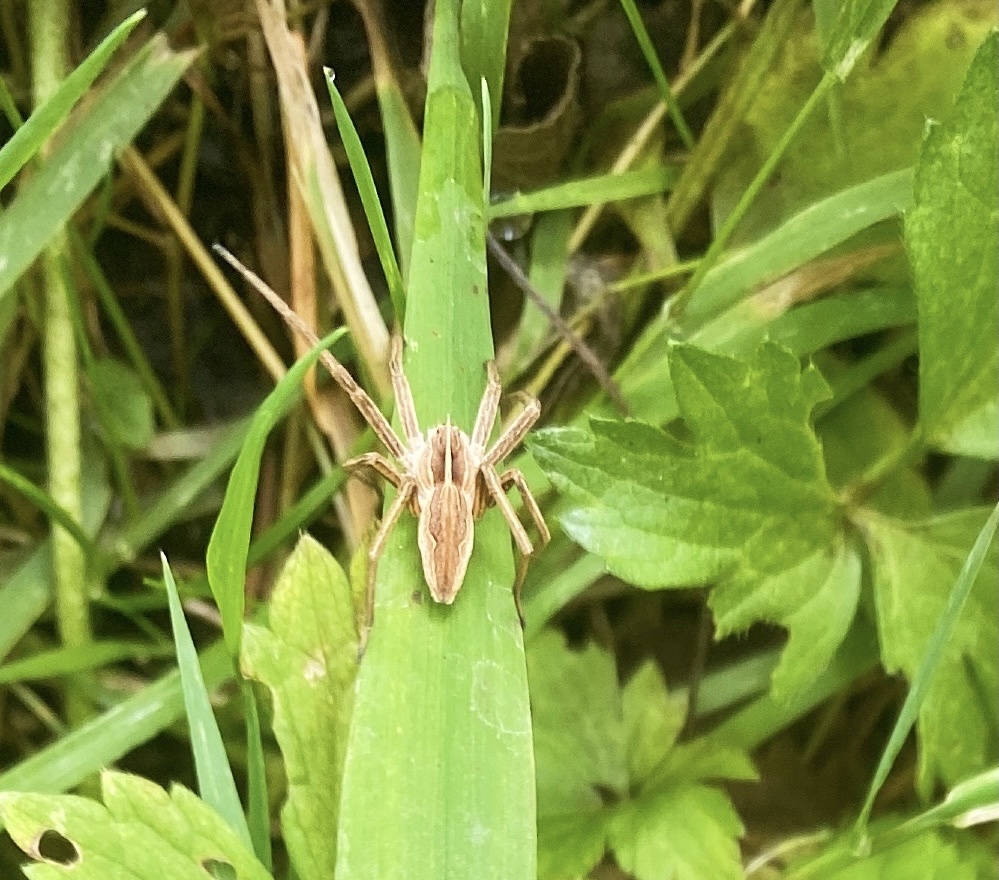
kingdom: Animalia
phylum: Arthropoda
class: Arachnida
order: Araneae
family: Pisauridae
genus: Pisaura
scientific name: Pisaura mirabilis
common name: Tent spider
